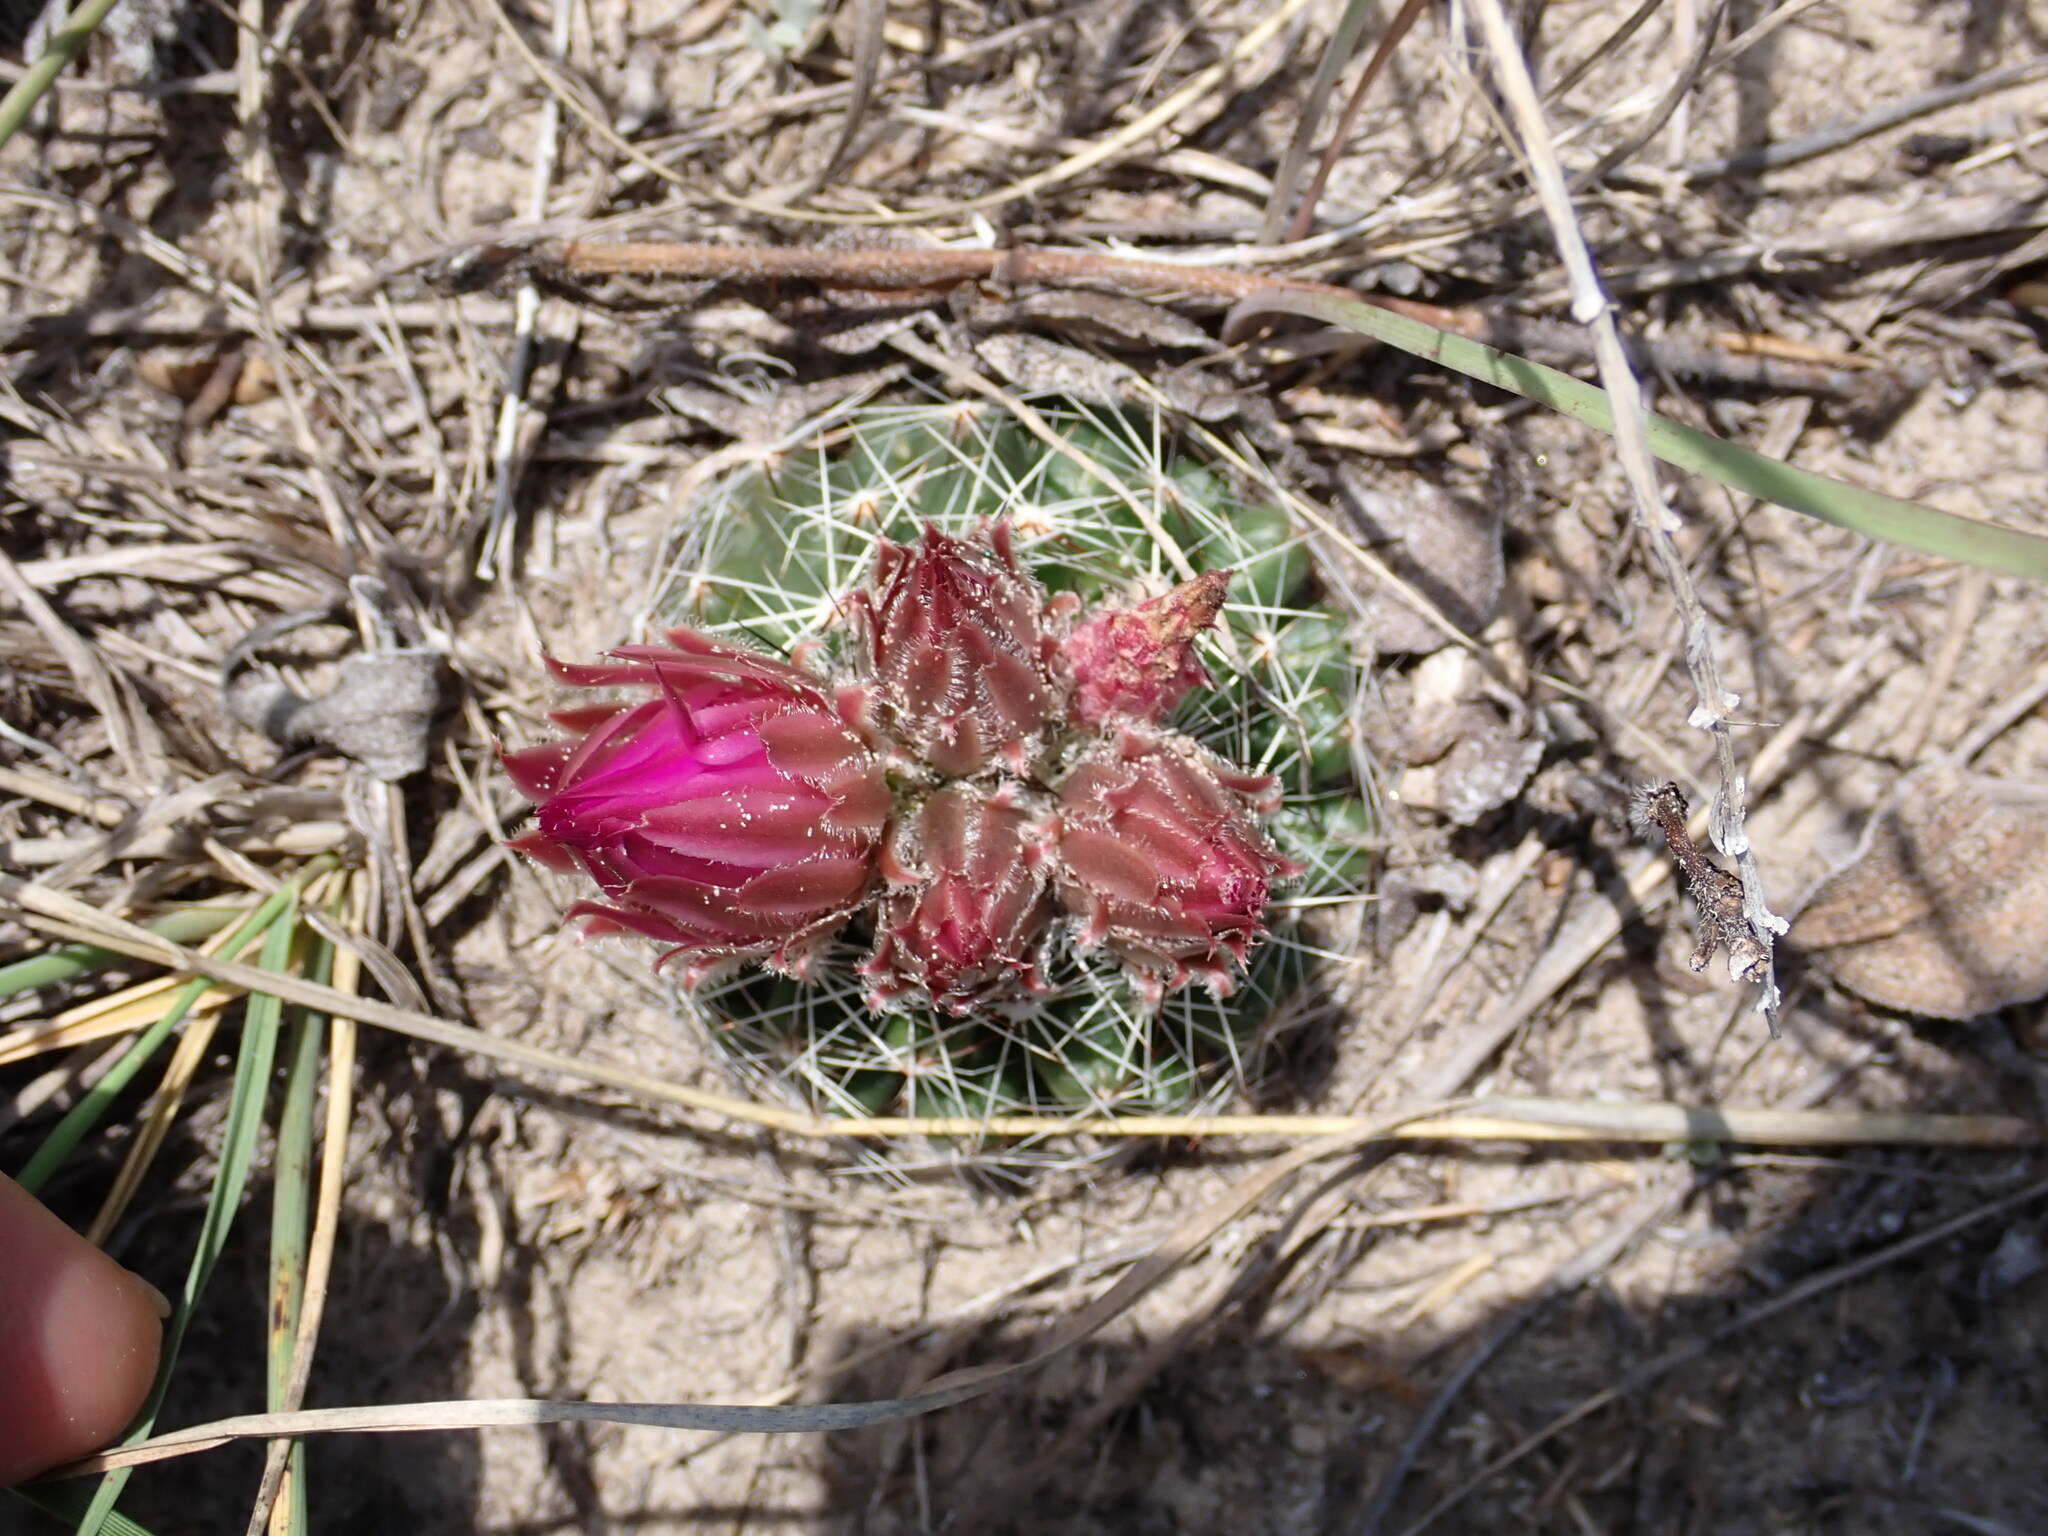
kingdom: Plantae
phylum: Tracheophyta
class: Magnoliopsida
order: Caryophyllales
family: Cactaceae
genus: Pelecyphora
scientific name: Pelecyphora vivipara
